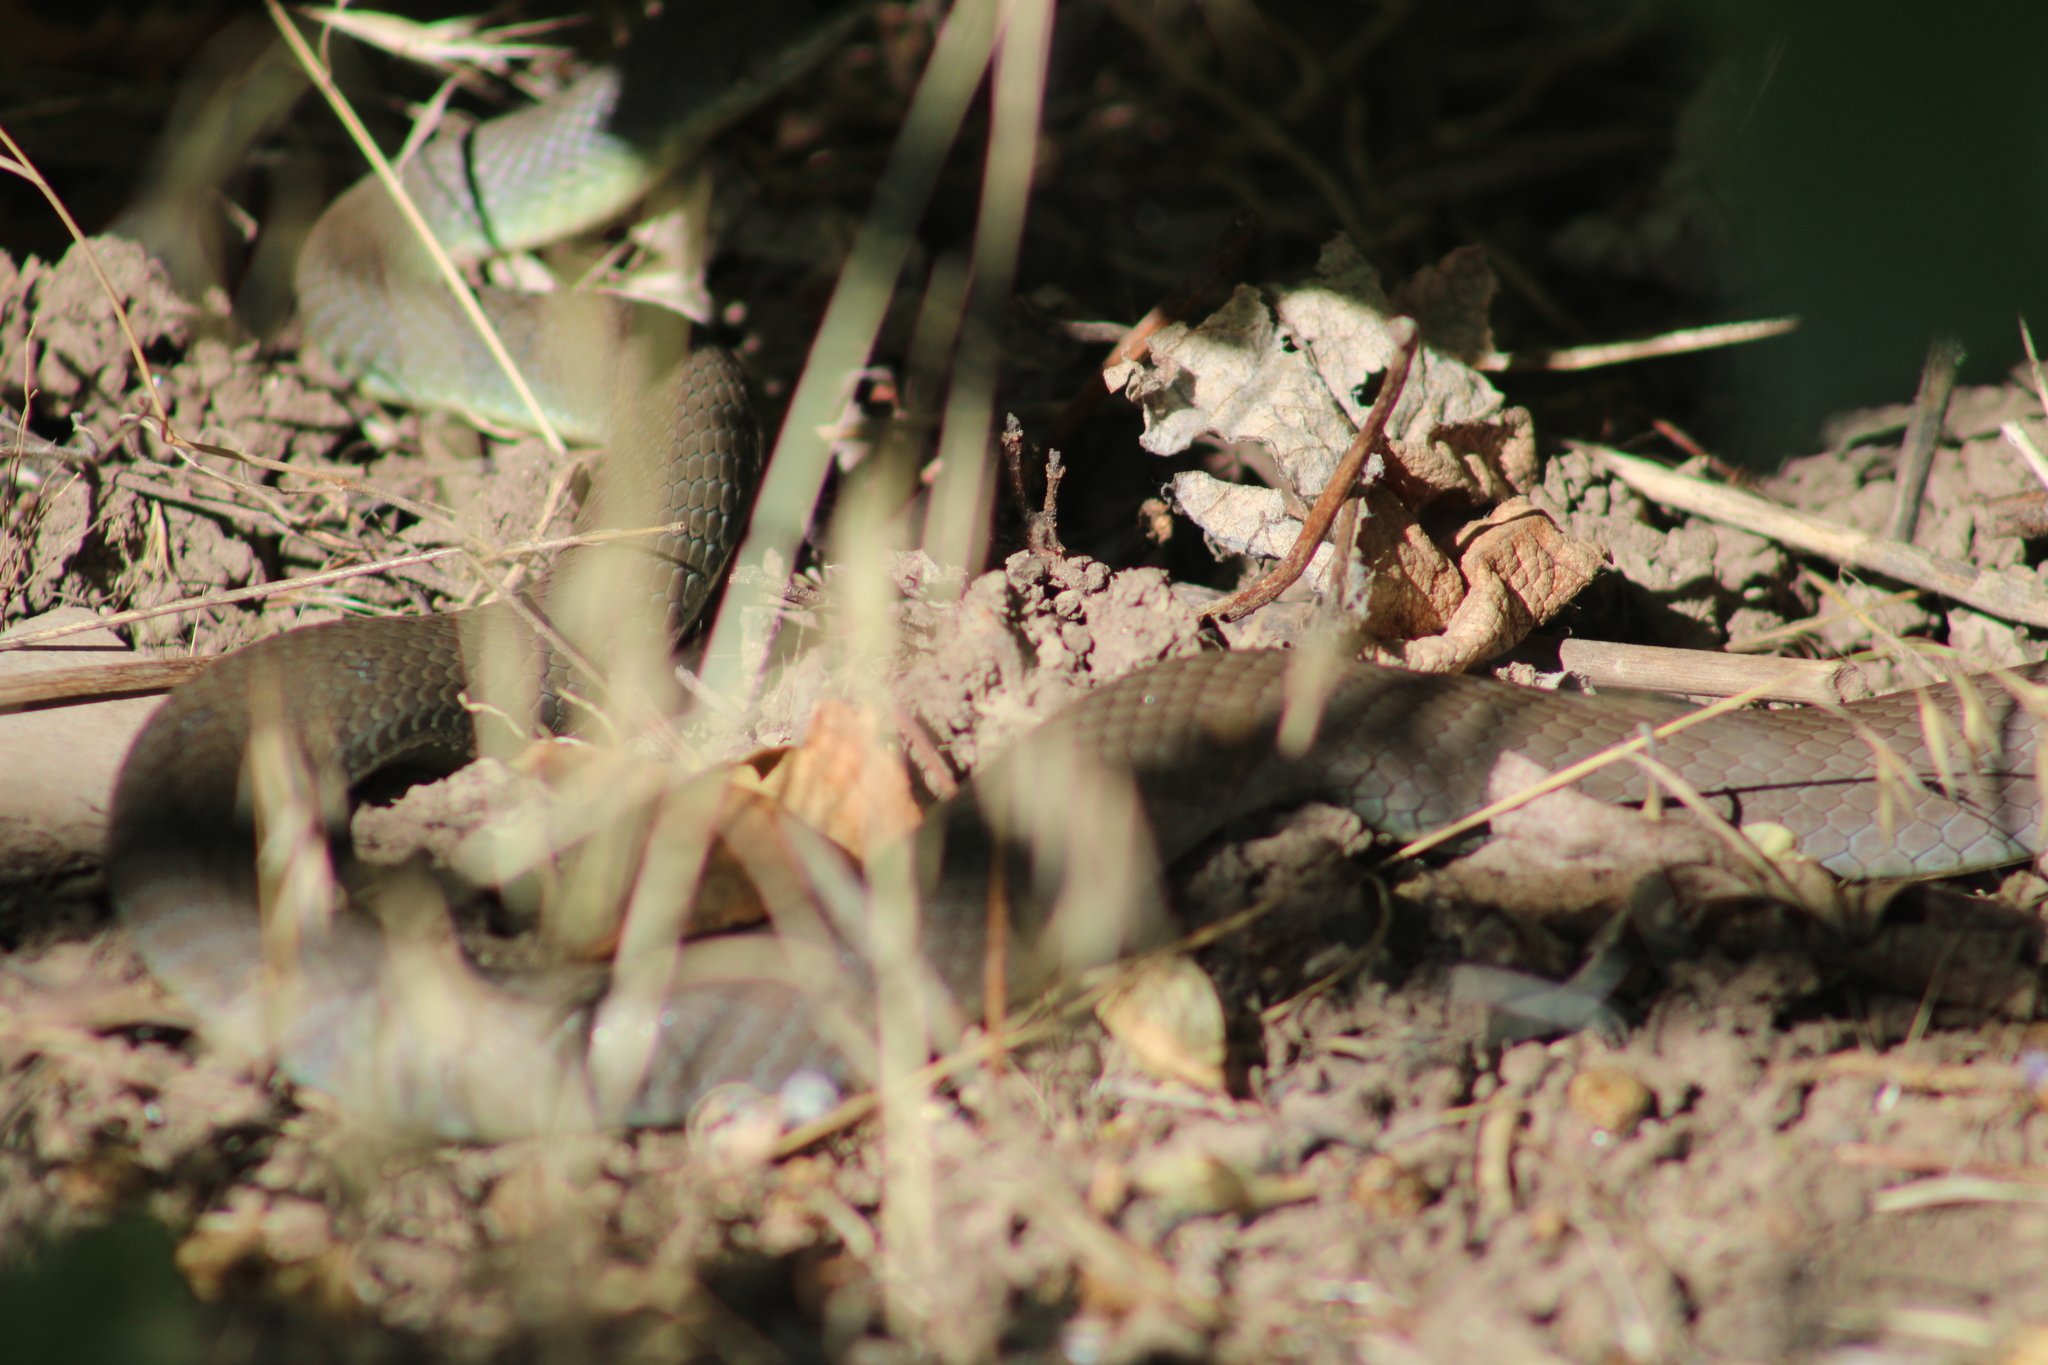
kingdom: Animalia
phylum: Chordata
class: Squamata
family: Colubridae
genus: Coluber
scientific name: Coluber constrictor
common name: Eastern racer
